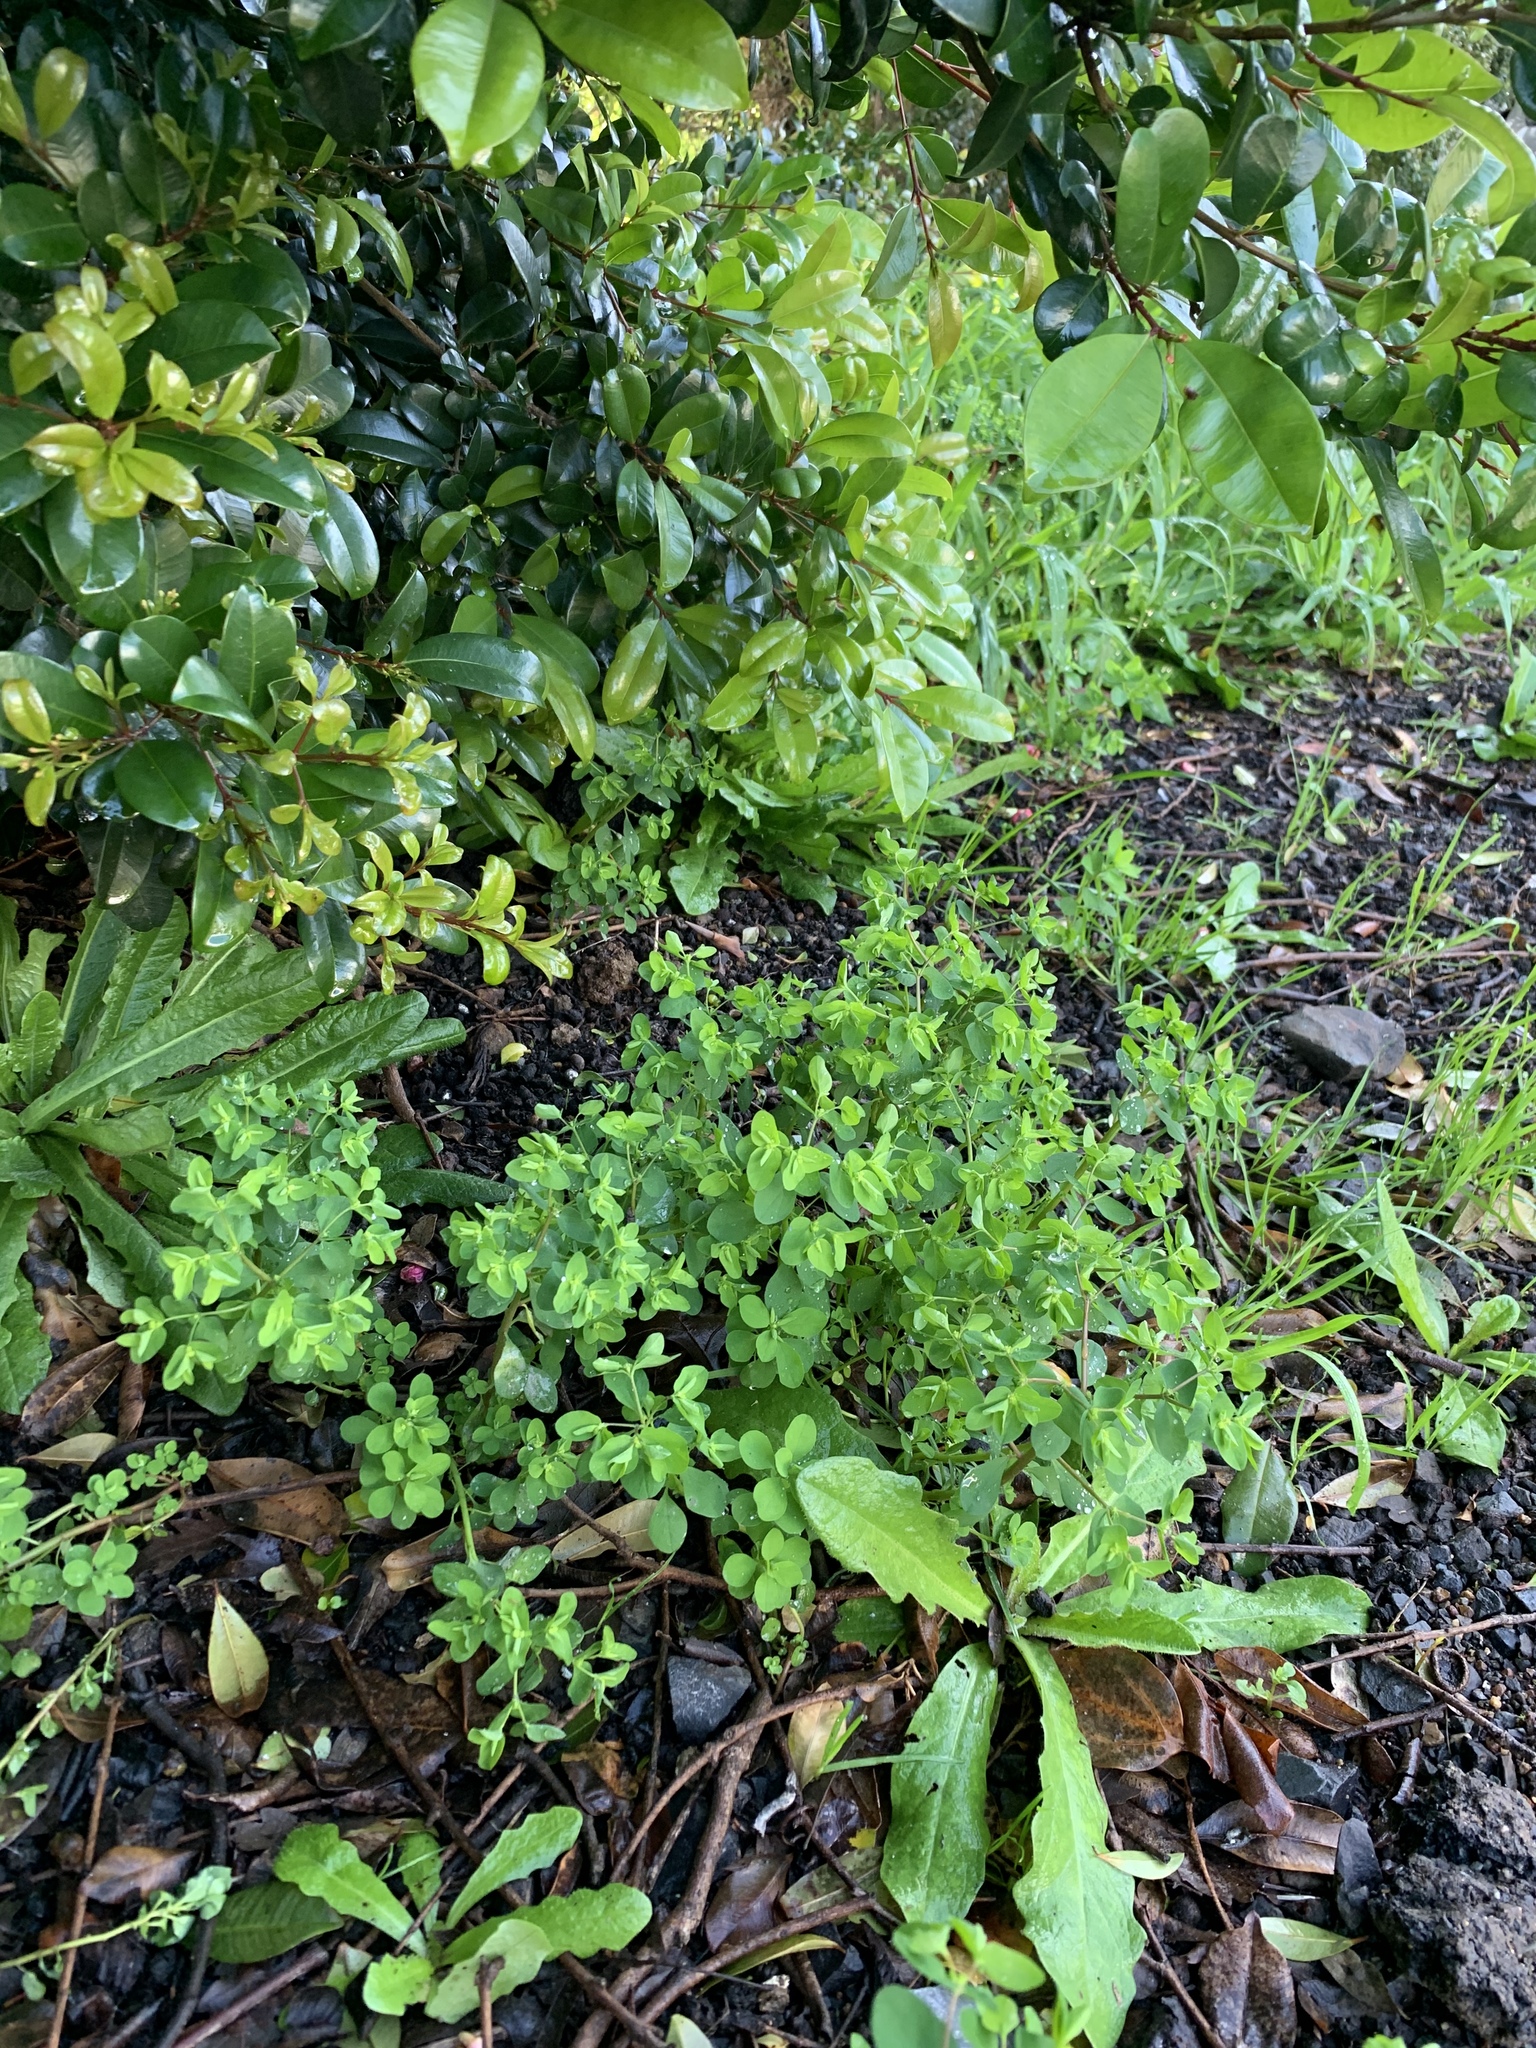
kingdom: Plantae
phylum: Tracheophyta
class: Magnoliopsida
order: Malpighiales
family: Euphorbiaceae
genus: Euphorbia
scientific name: Euphorbia peplus
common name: Petty spurge
